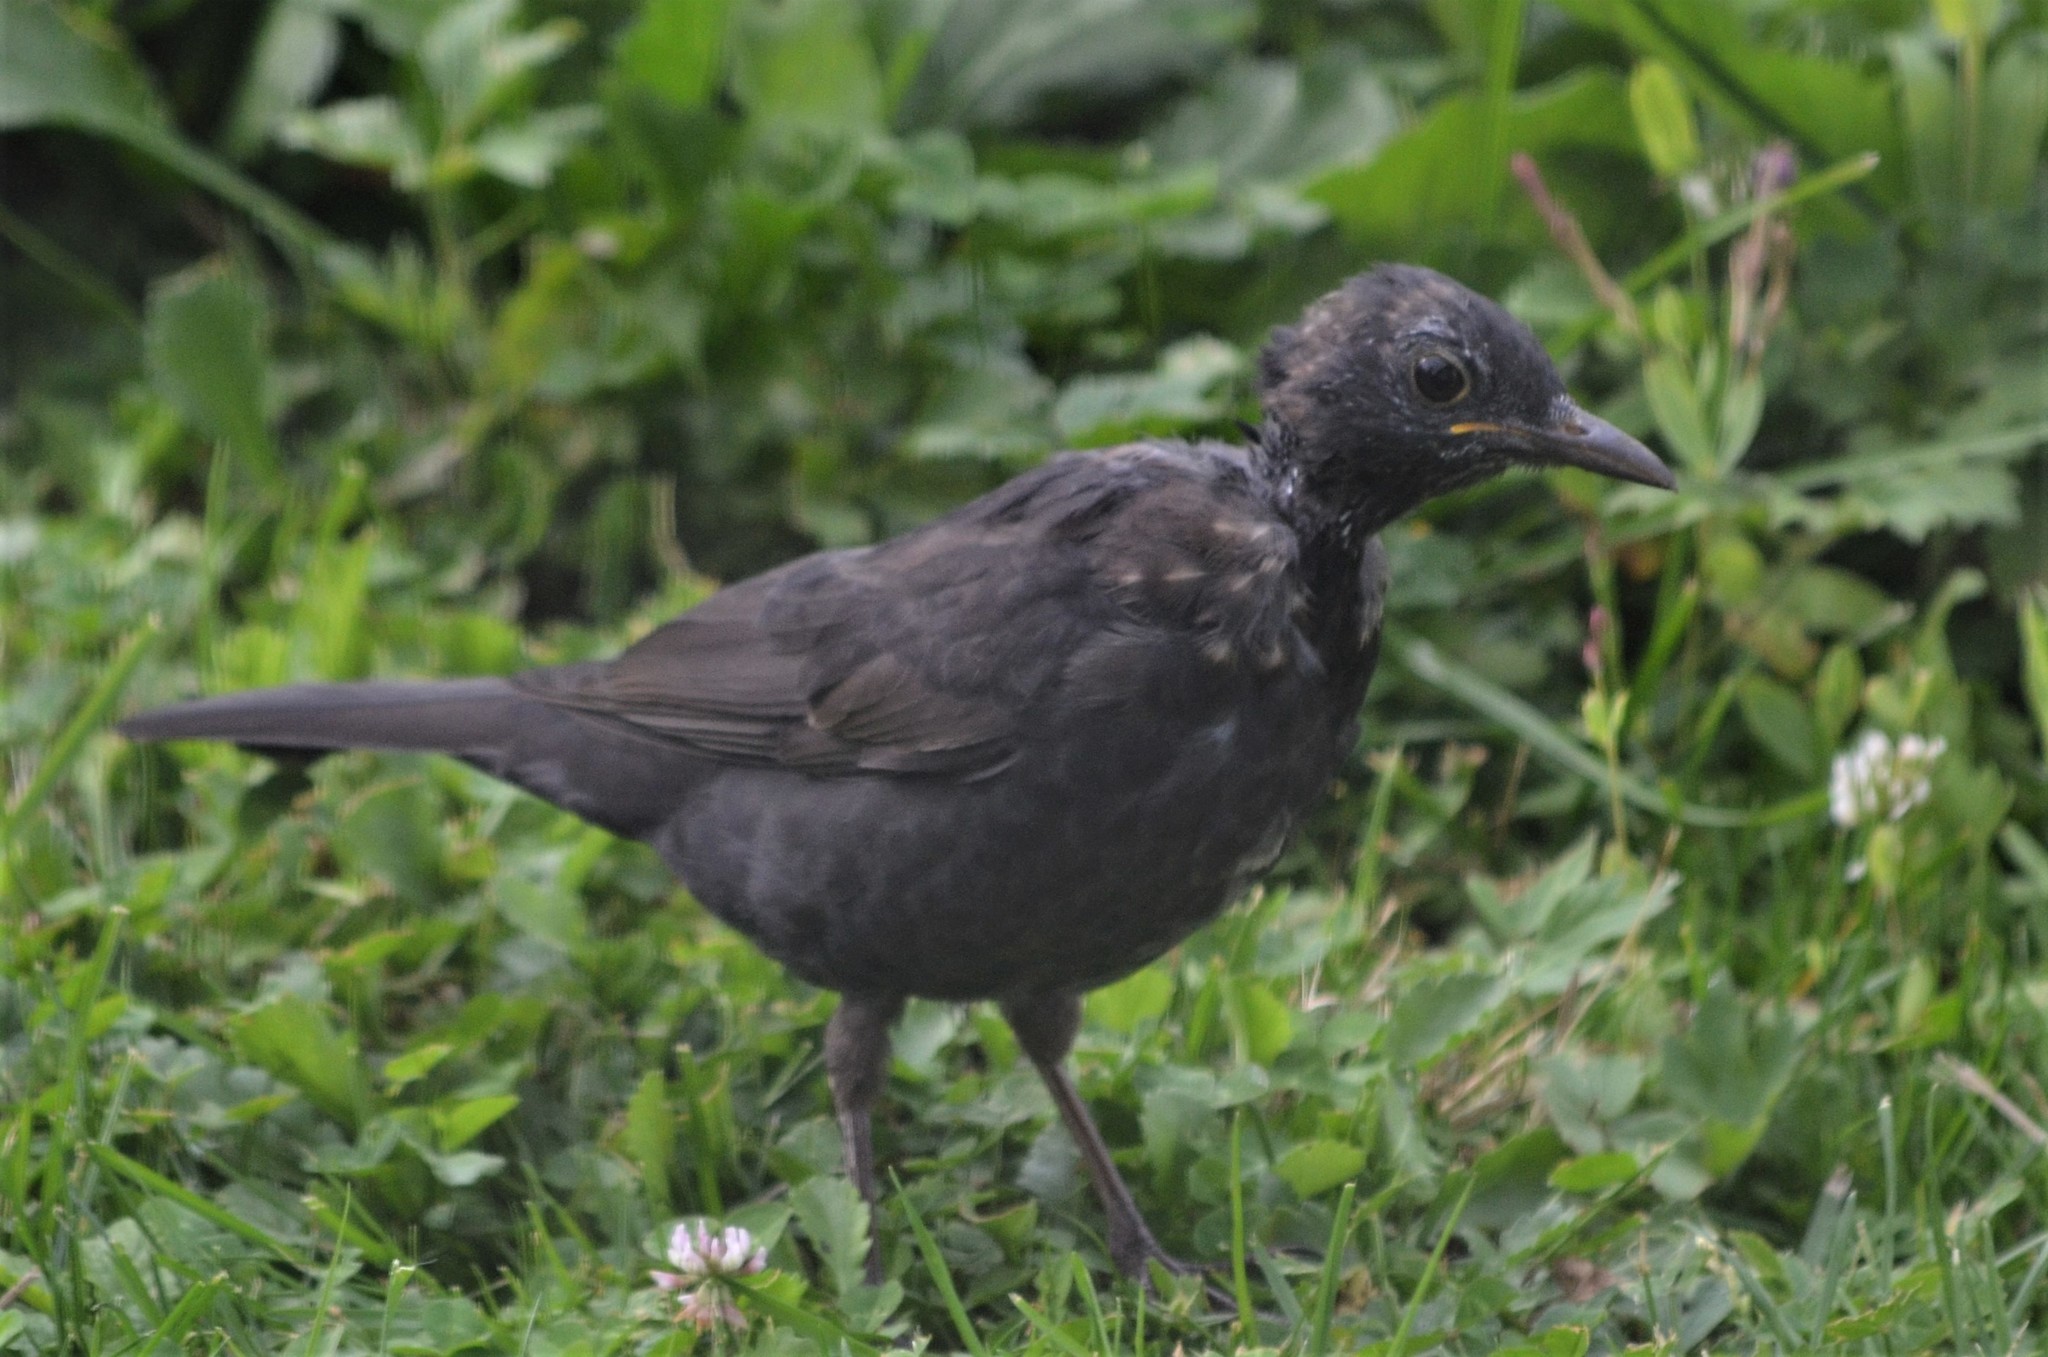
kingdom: Animalia
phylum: Chordata
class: Aves
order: Passeriformes
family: Turdidae
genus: Turdus
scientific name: Turdus merula
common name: Common blackbird
